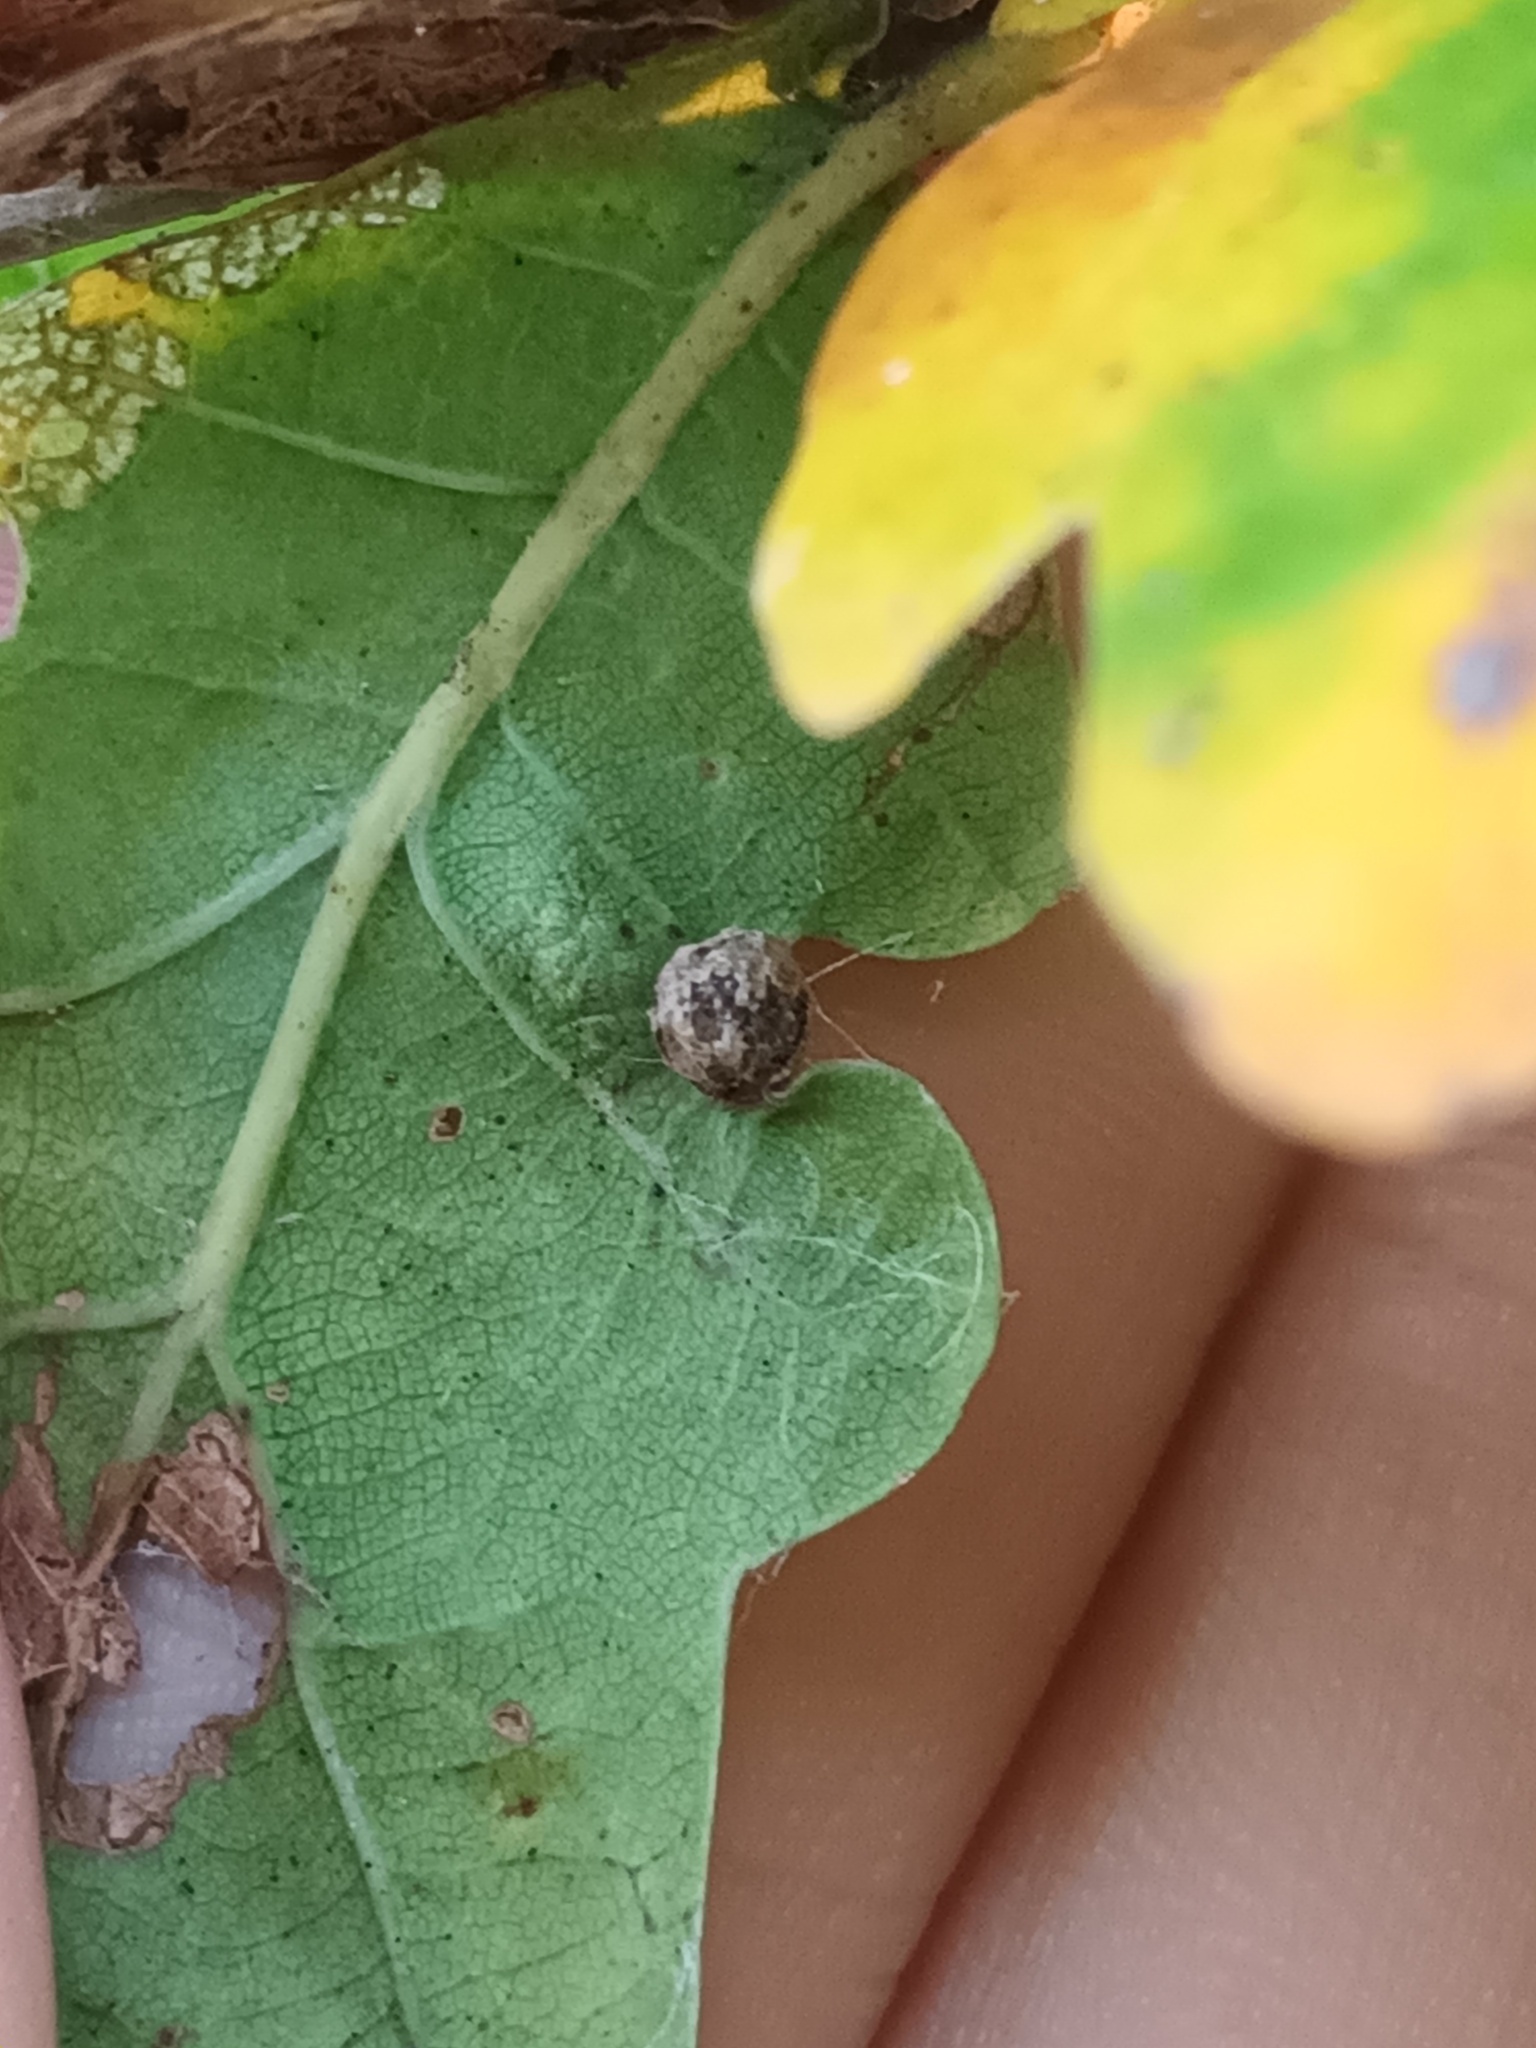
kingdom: Animalia
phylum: Arthropoda
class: Insecta
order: Hymenoptera
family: Cynipidae
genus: Neuroterus
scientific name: Neuroterus quercusbaccarum
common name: Common spangle gall
